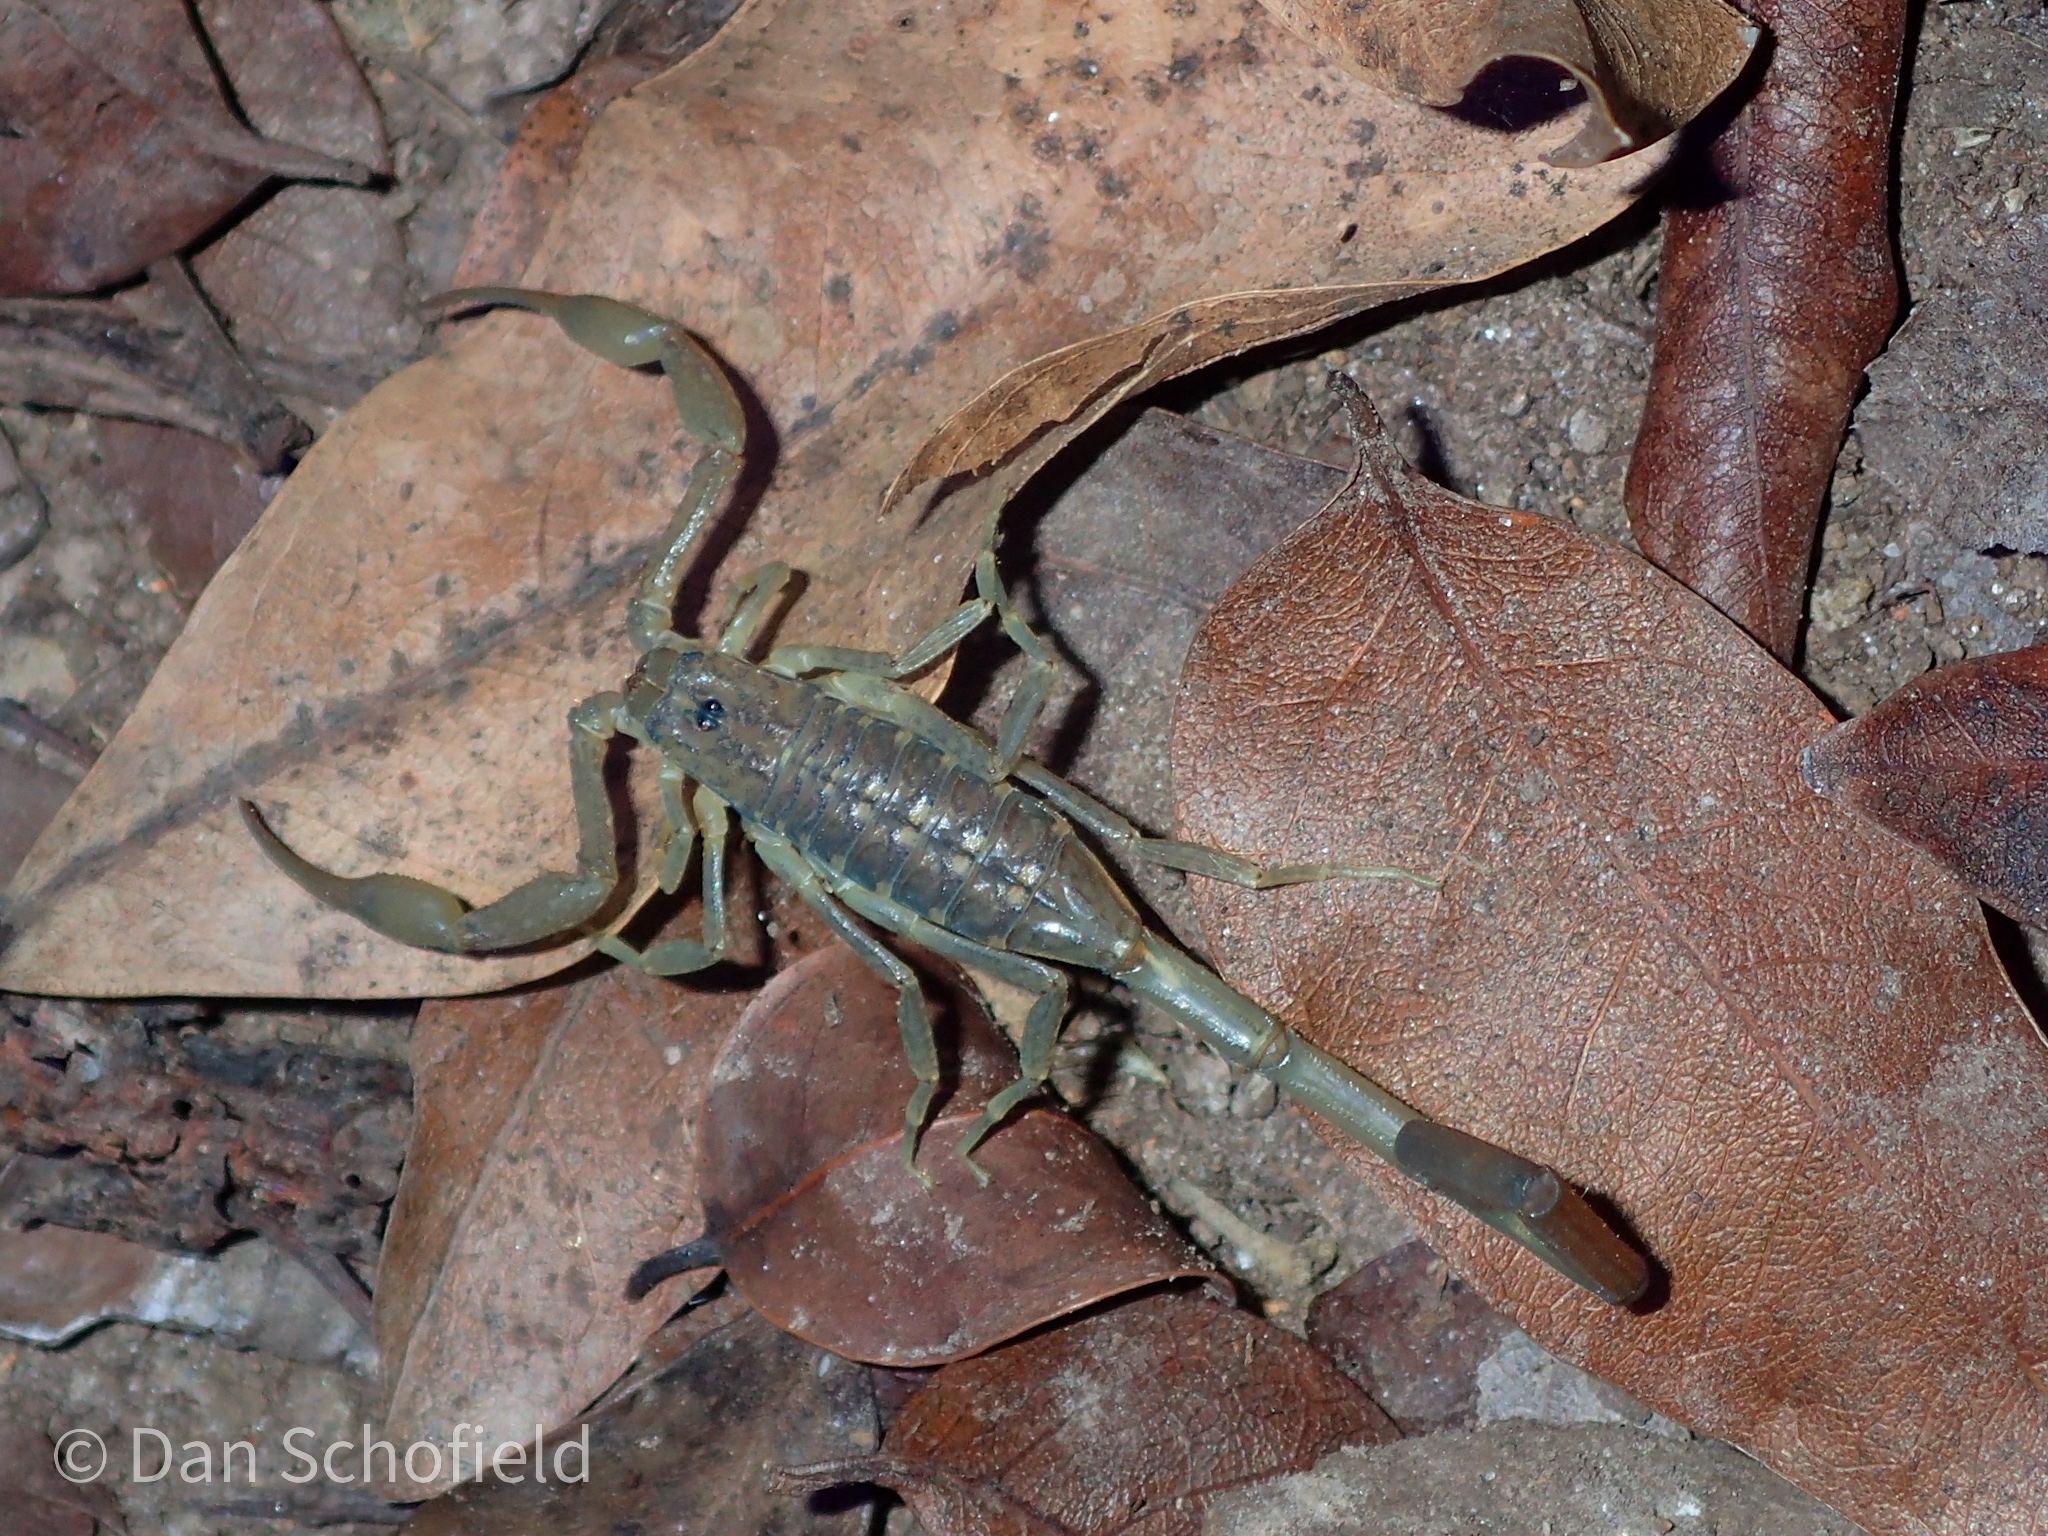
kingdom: Animalia
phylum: Arthropoda
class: Arachnida
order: Scorpiones
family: Buthidae
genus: Centruroides
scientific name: Centruroides barbudensis
